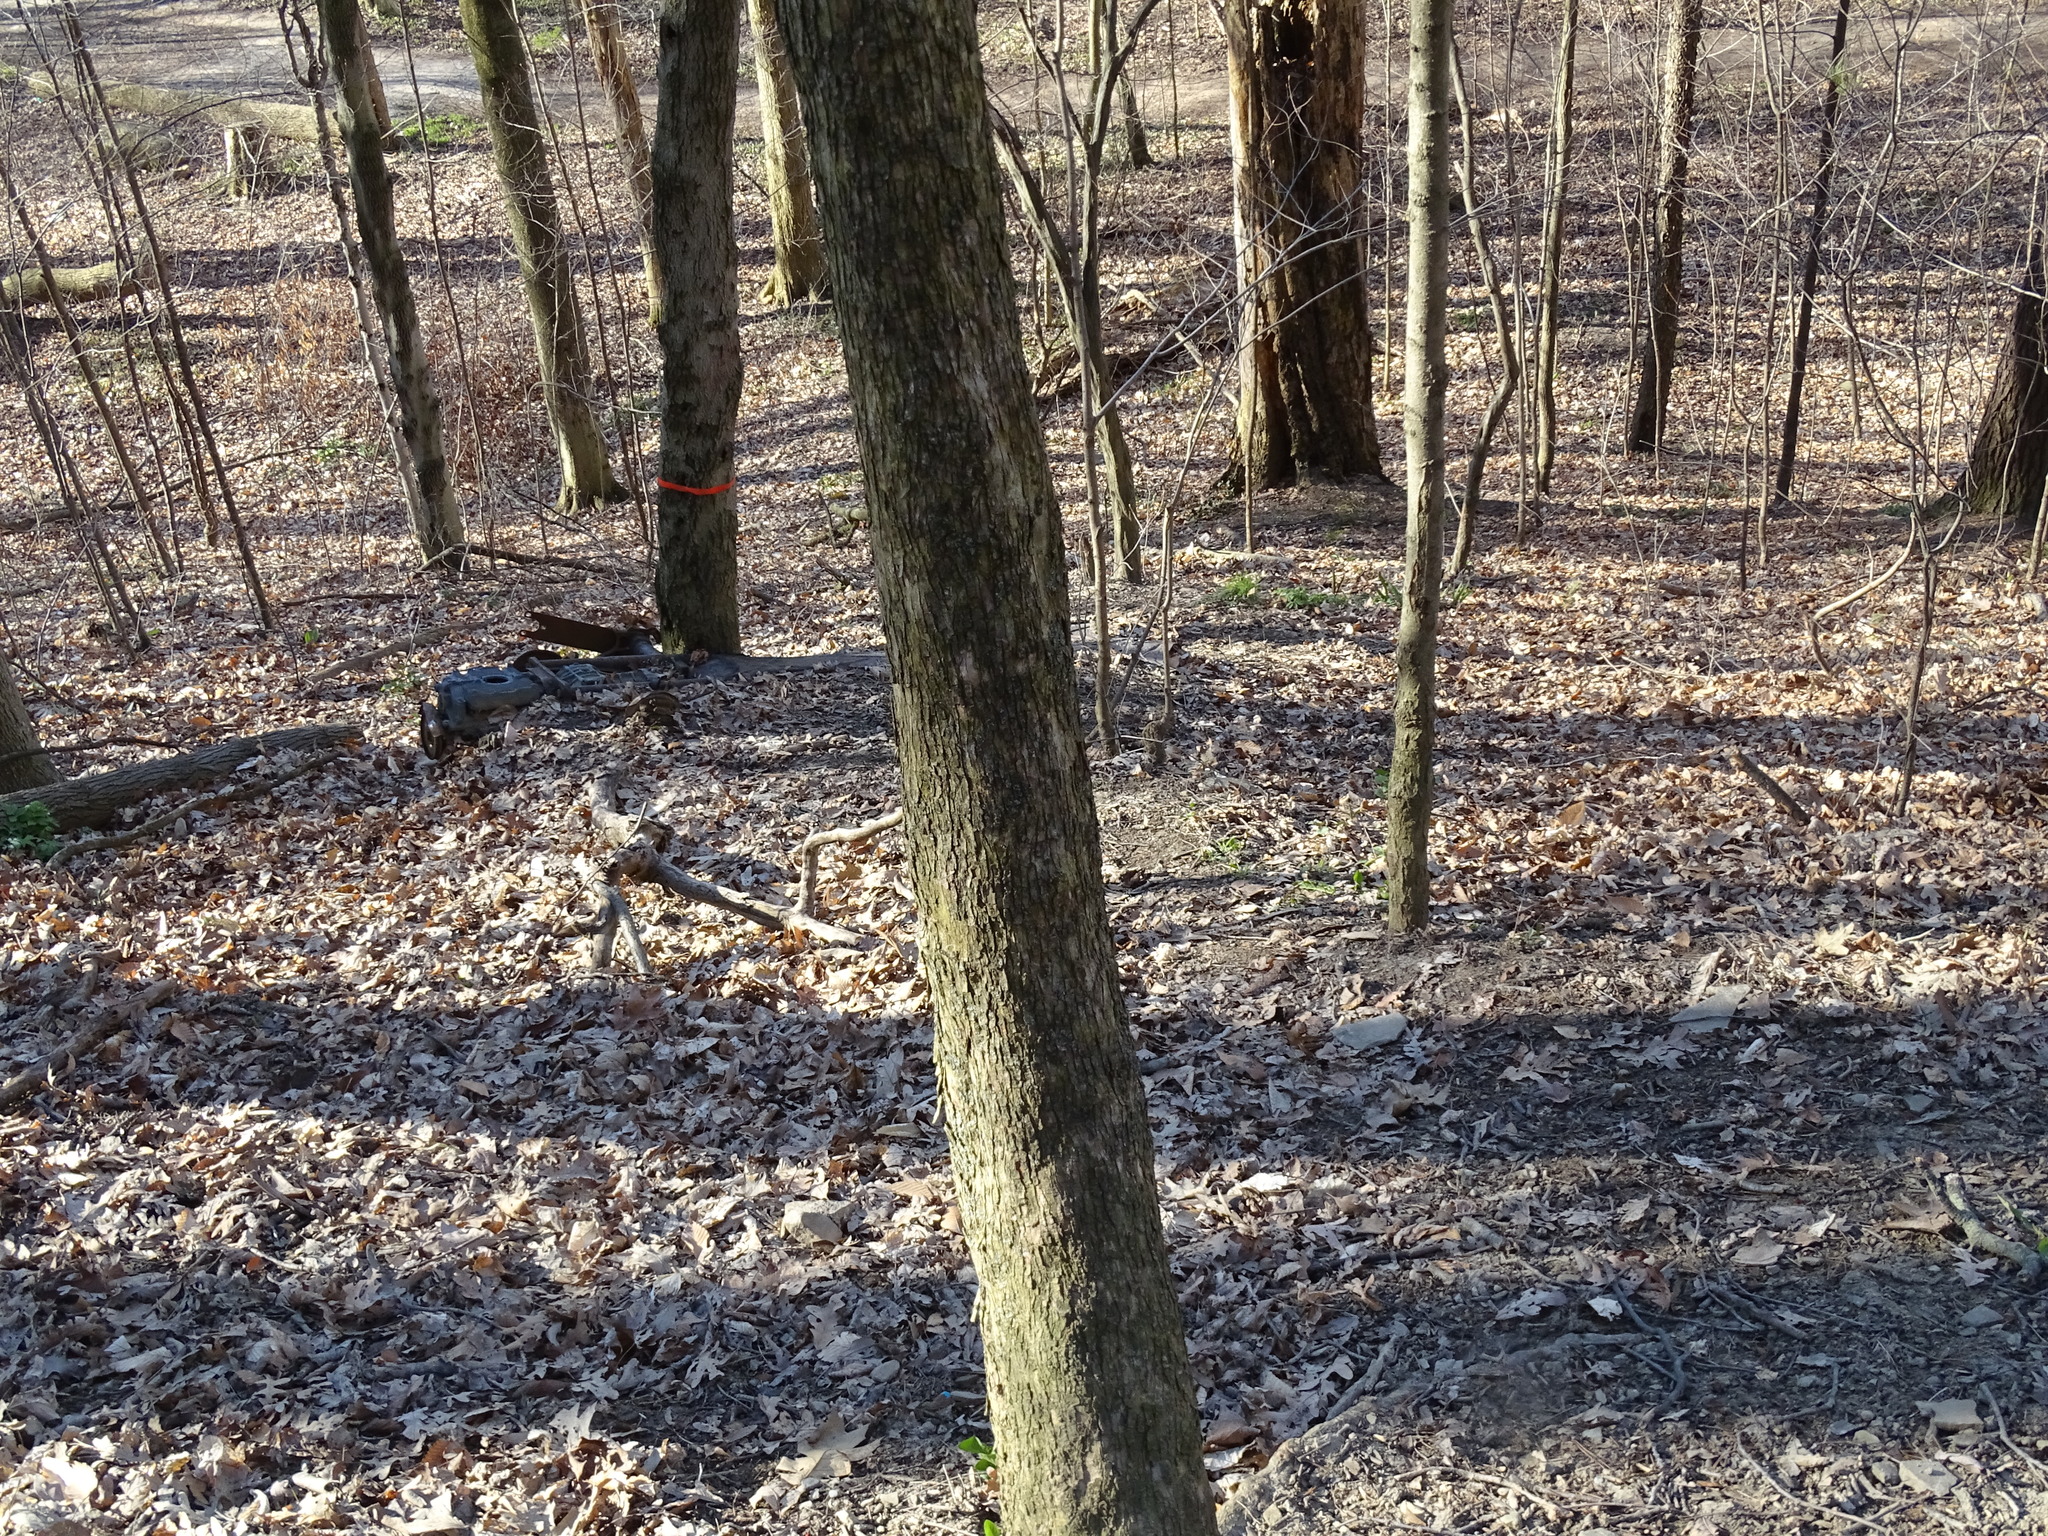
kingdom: Plantae
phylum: Tracheophyta
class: Magnoliopsida
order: Fagales
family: Betulaceae
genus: Ostrya
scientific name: Ostrya virginiana
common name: Ironwood
